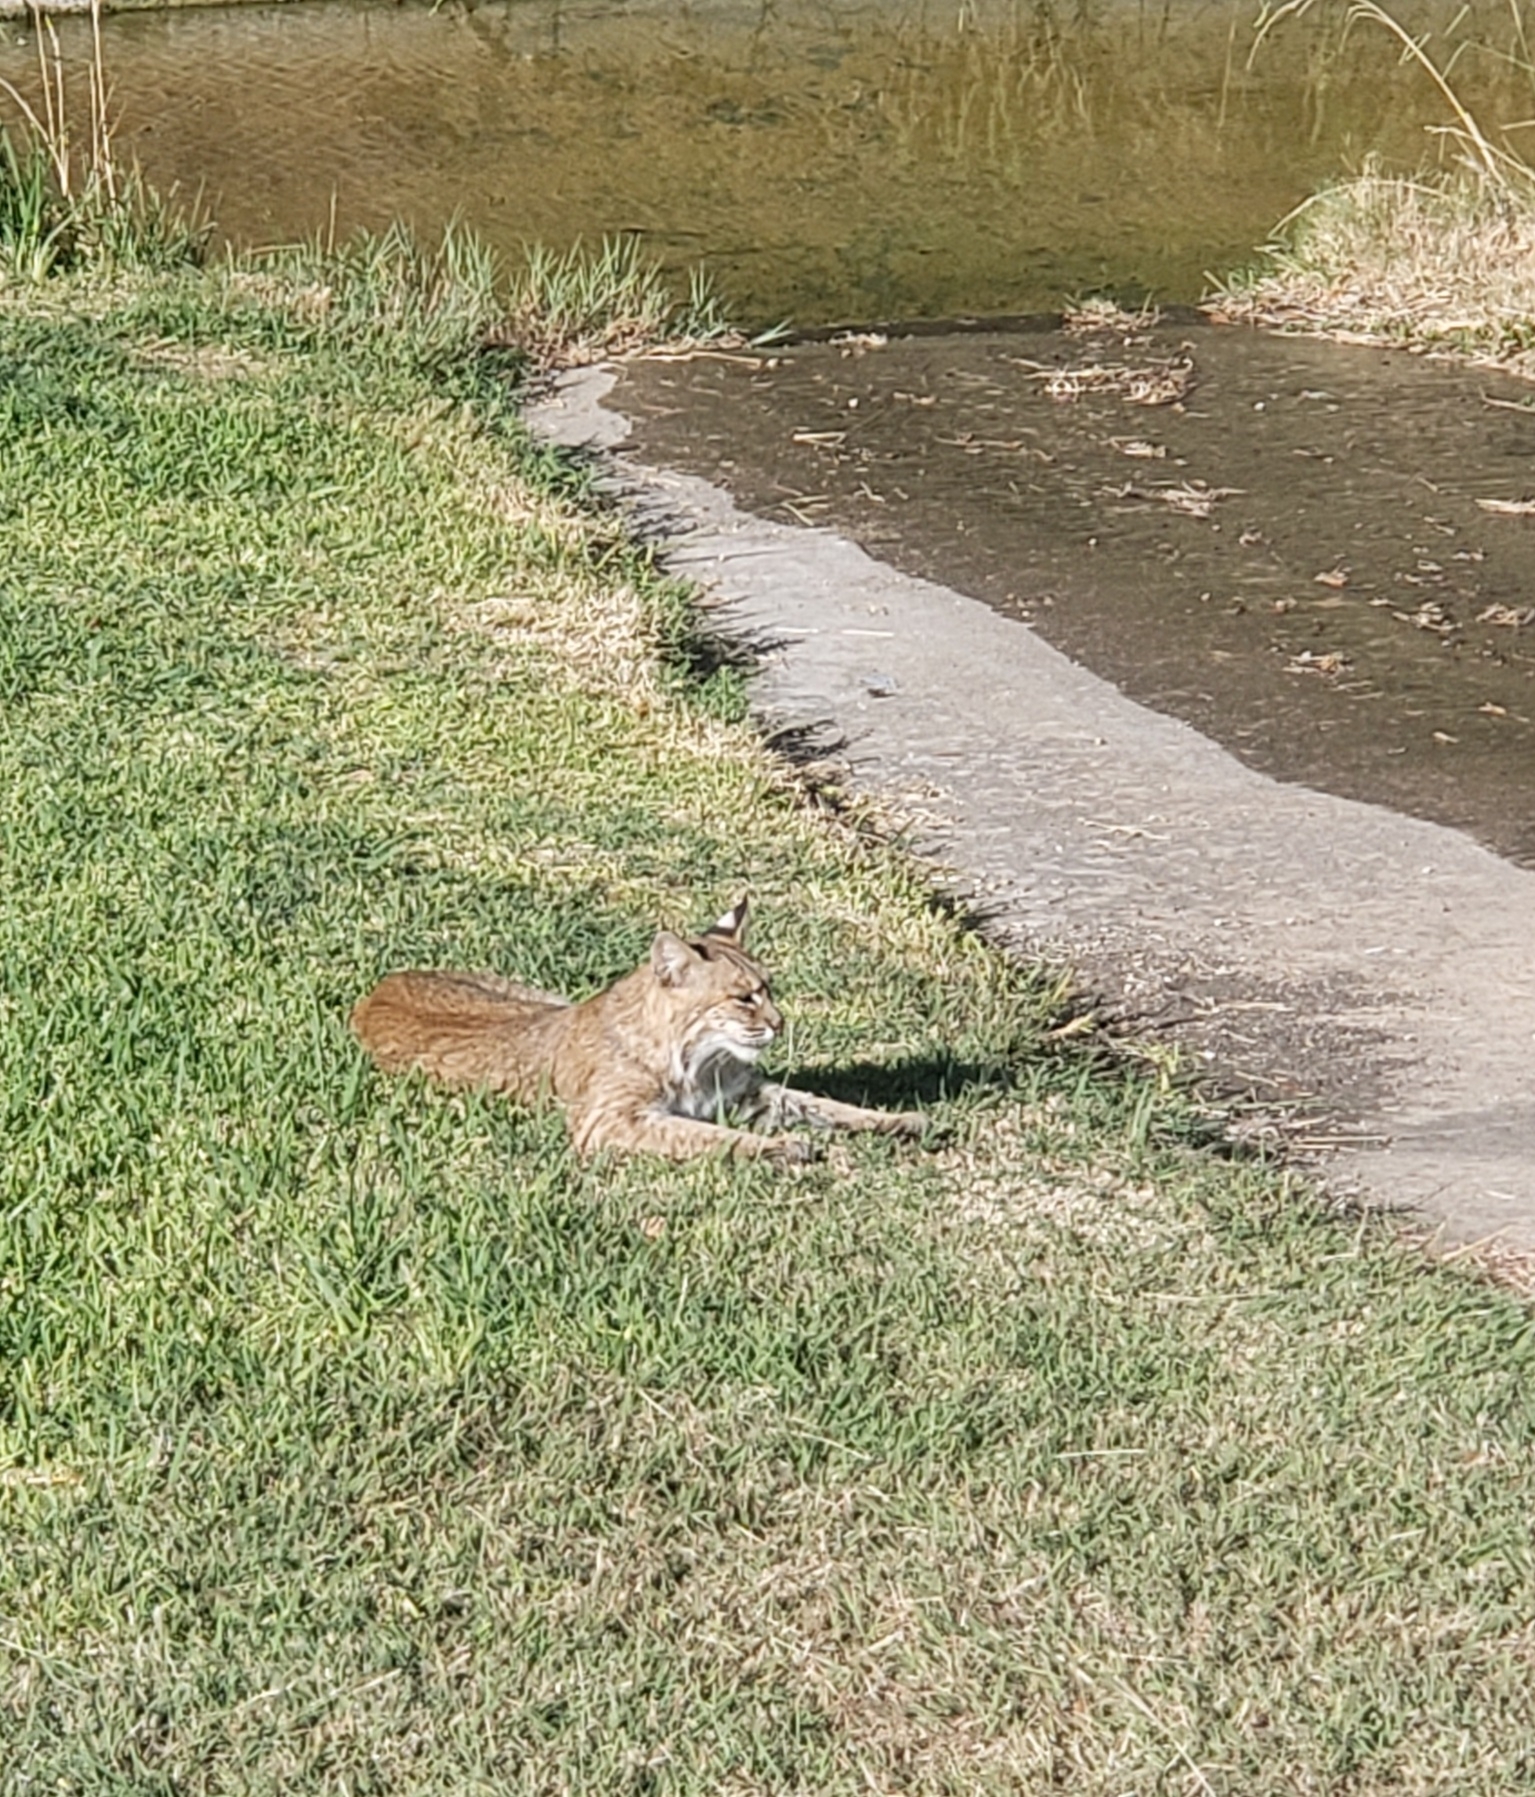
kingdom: Animalia
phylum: Chordata
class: Mammalia
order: Carnivora
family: Felidae
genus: Lynx
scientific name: Lynx rufus
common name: Bobcat
